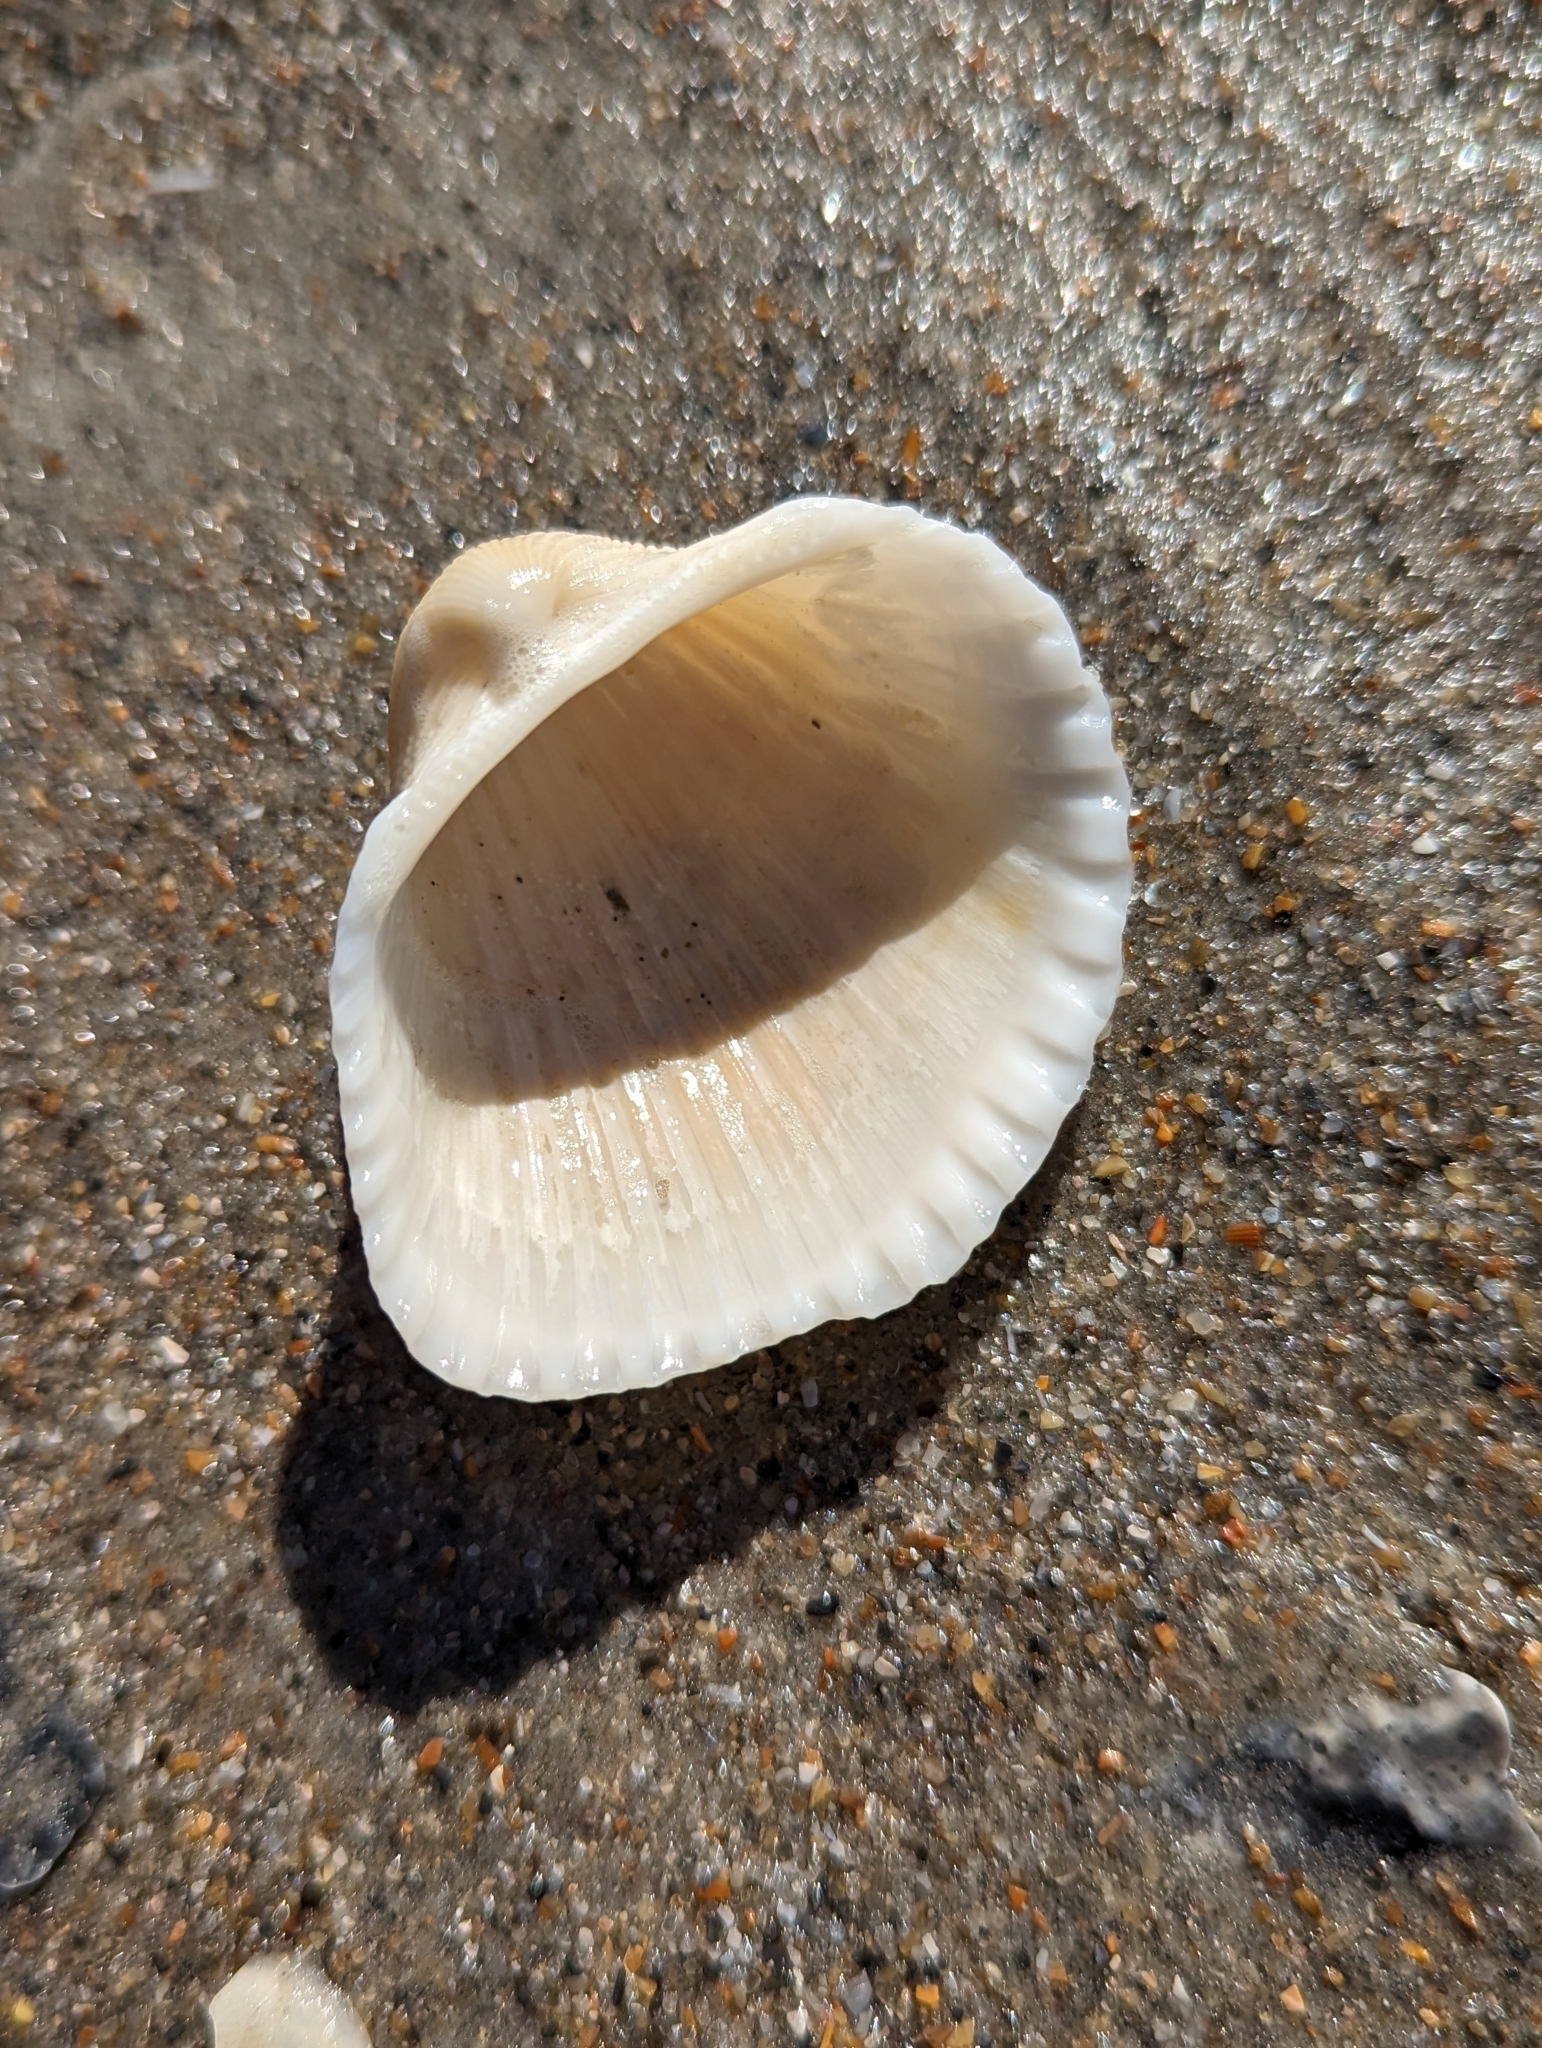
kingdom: Animalia
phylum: Mollusca
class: Bivalvia
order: Arcida
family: Arcidae
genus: Anadara
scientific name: Anadara brasiliana
